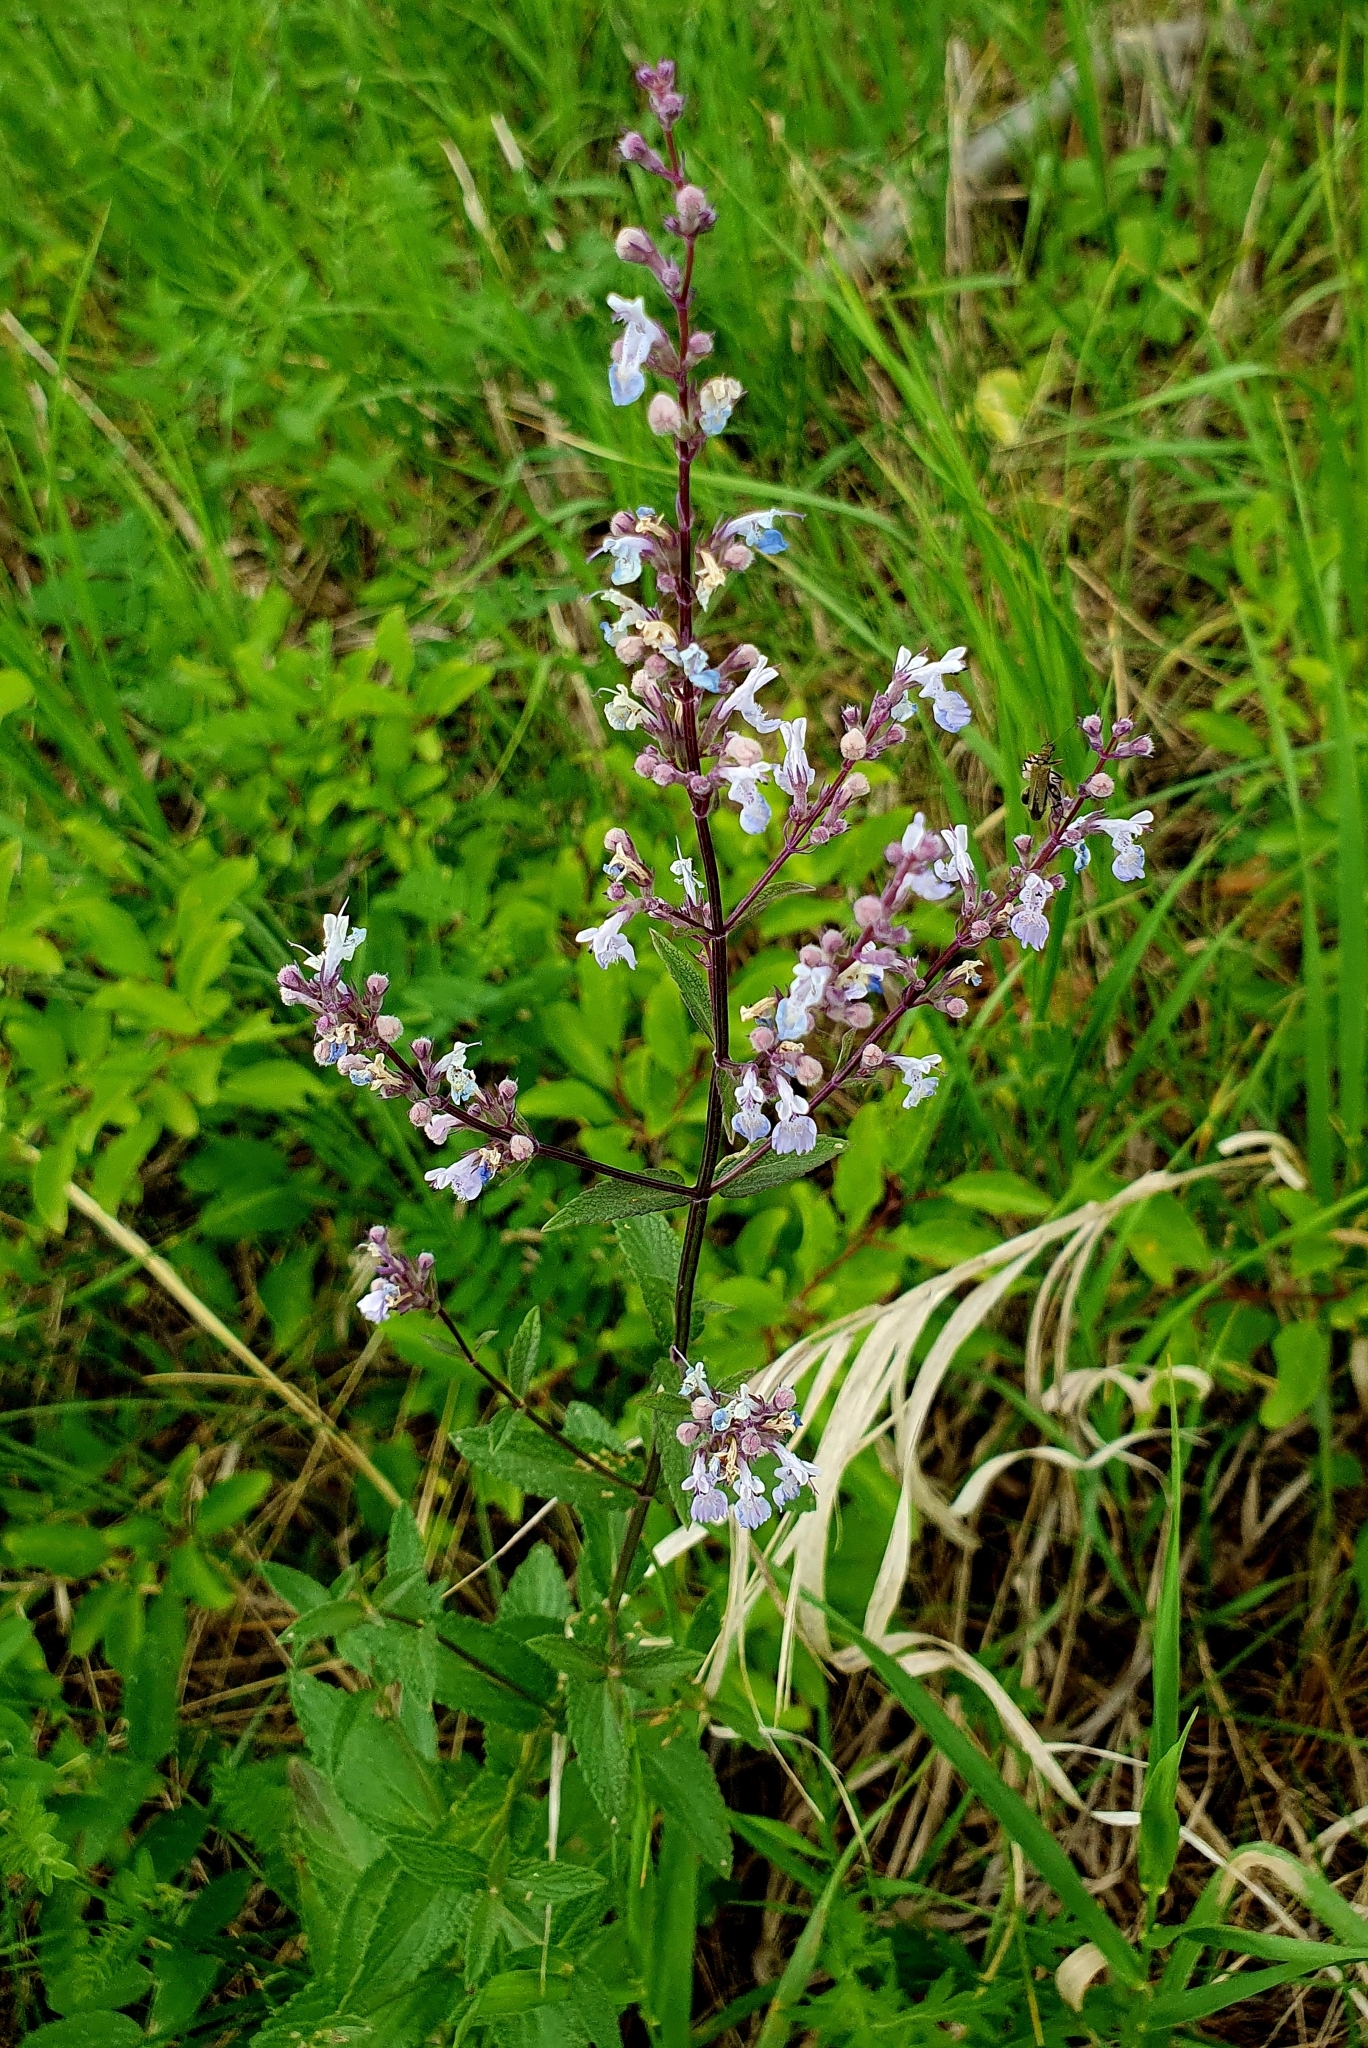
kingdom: Plantae
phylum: Tracheophyta
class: Magnoliopsida
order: Lamiales
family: Lamiaceae
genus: Nepeta
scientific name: Nepeta nuda
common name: Hairless catmint
